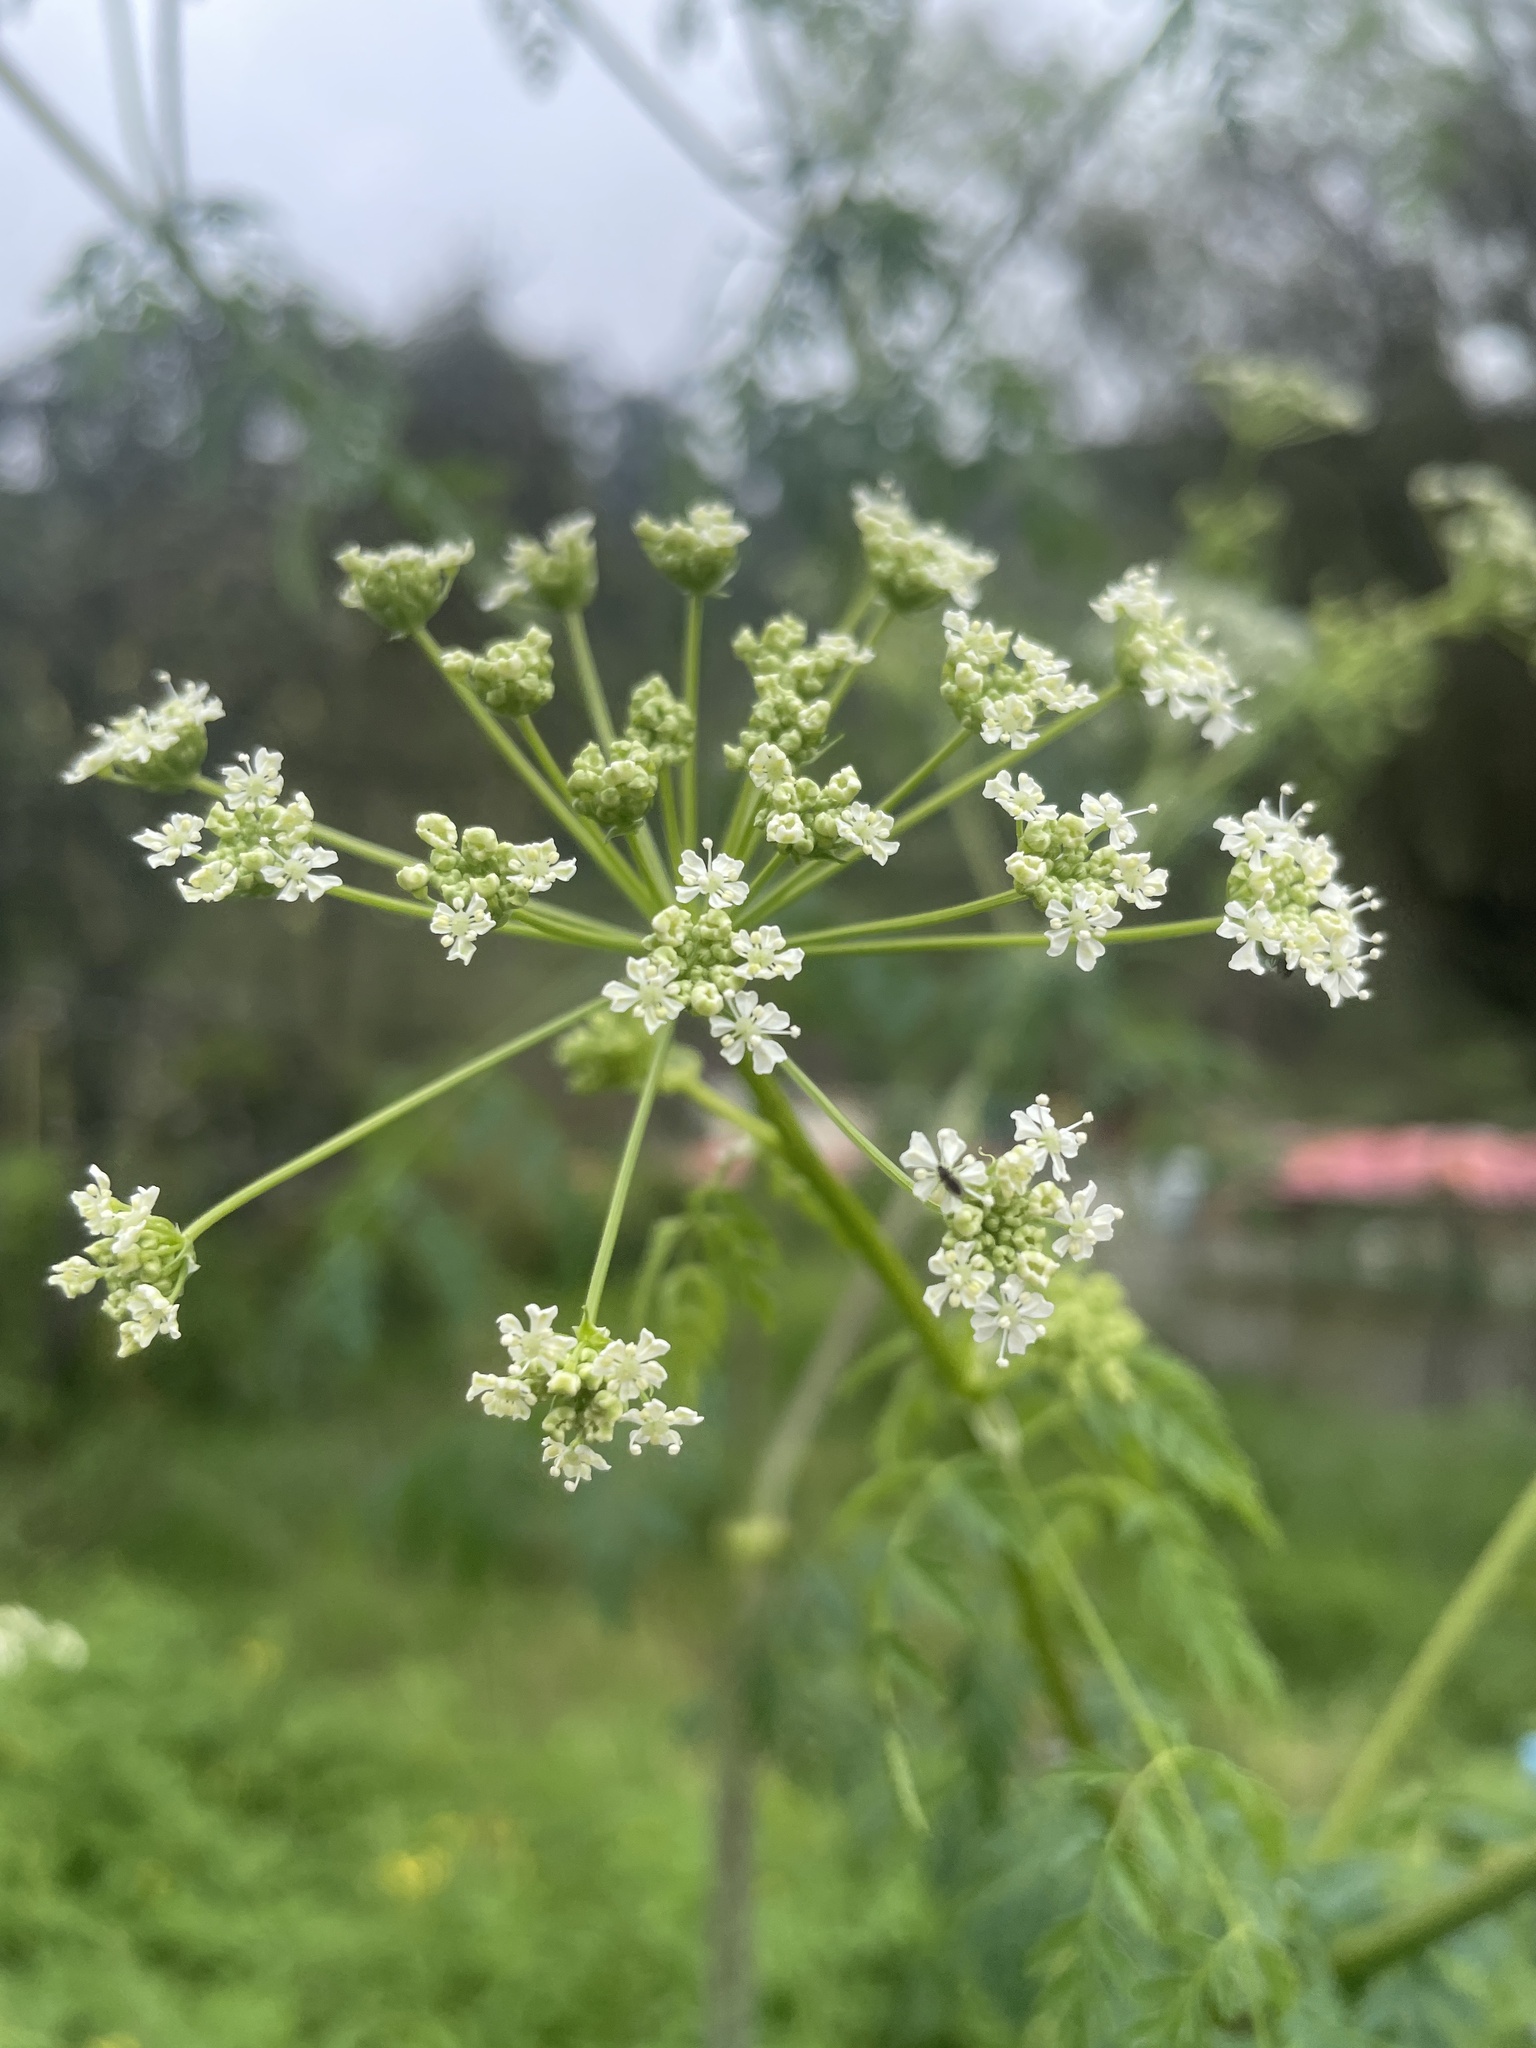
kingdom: Plantae
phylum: Tracheophyta
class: Magnoliopsida
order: Apiales
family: Apiaceae
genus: Conium
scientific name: Conium maculatum
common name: Hemlock
